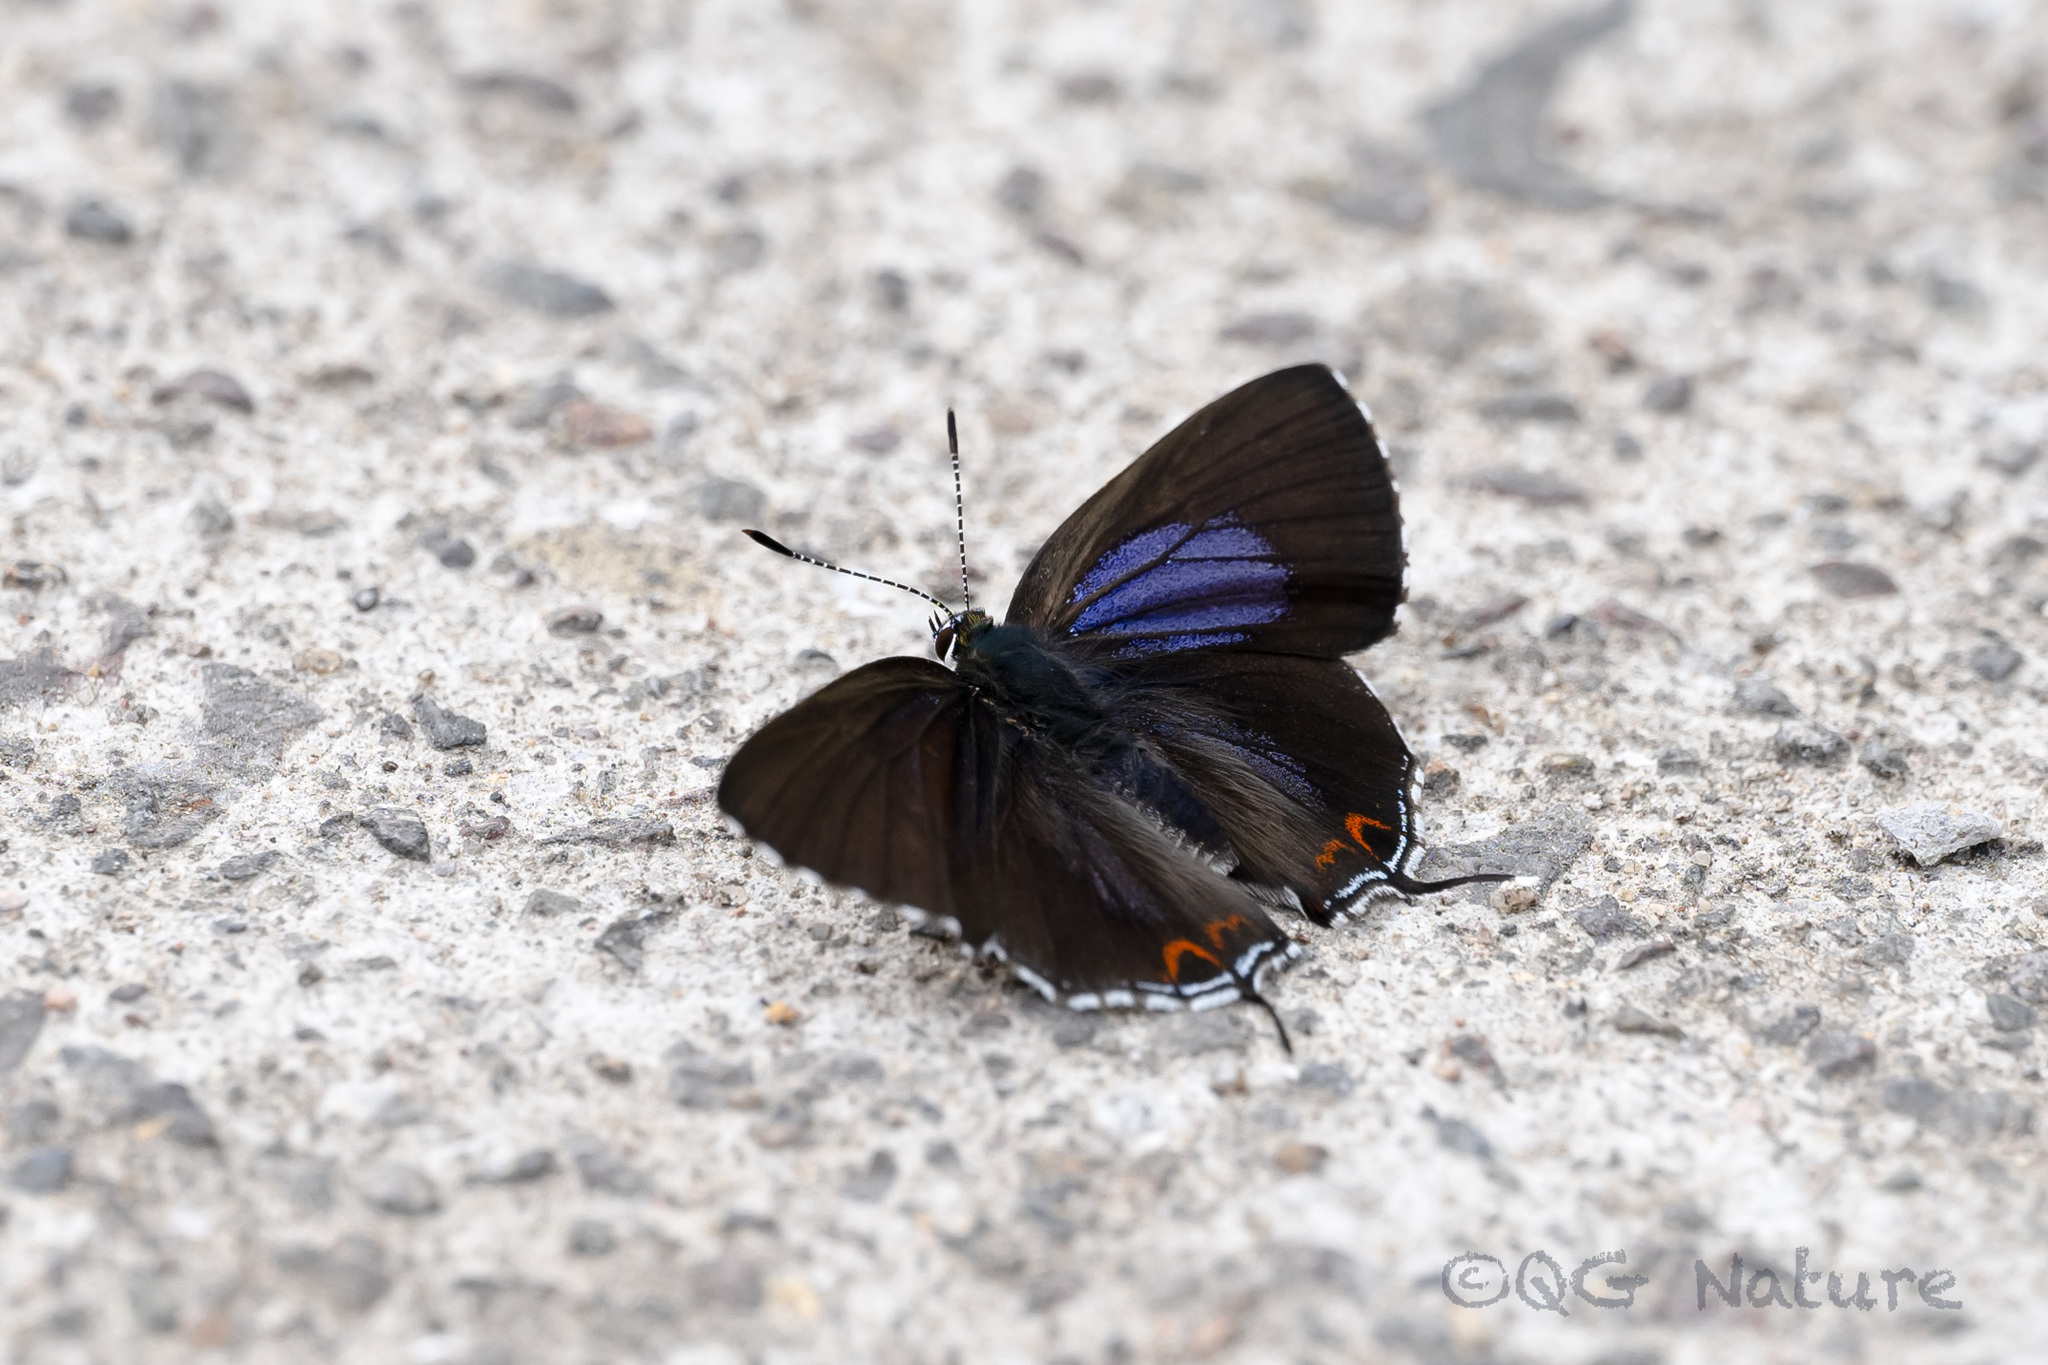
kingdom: Animalia
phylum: Arthropoda
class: Insecta
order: Lepidoptera
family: Lycaenidae
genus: Heliophorus
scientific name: Heliophorus ila
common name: Restricted purple sapphire
